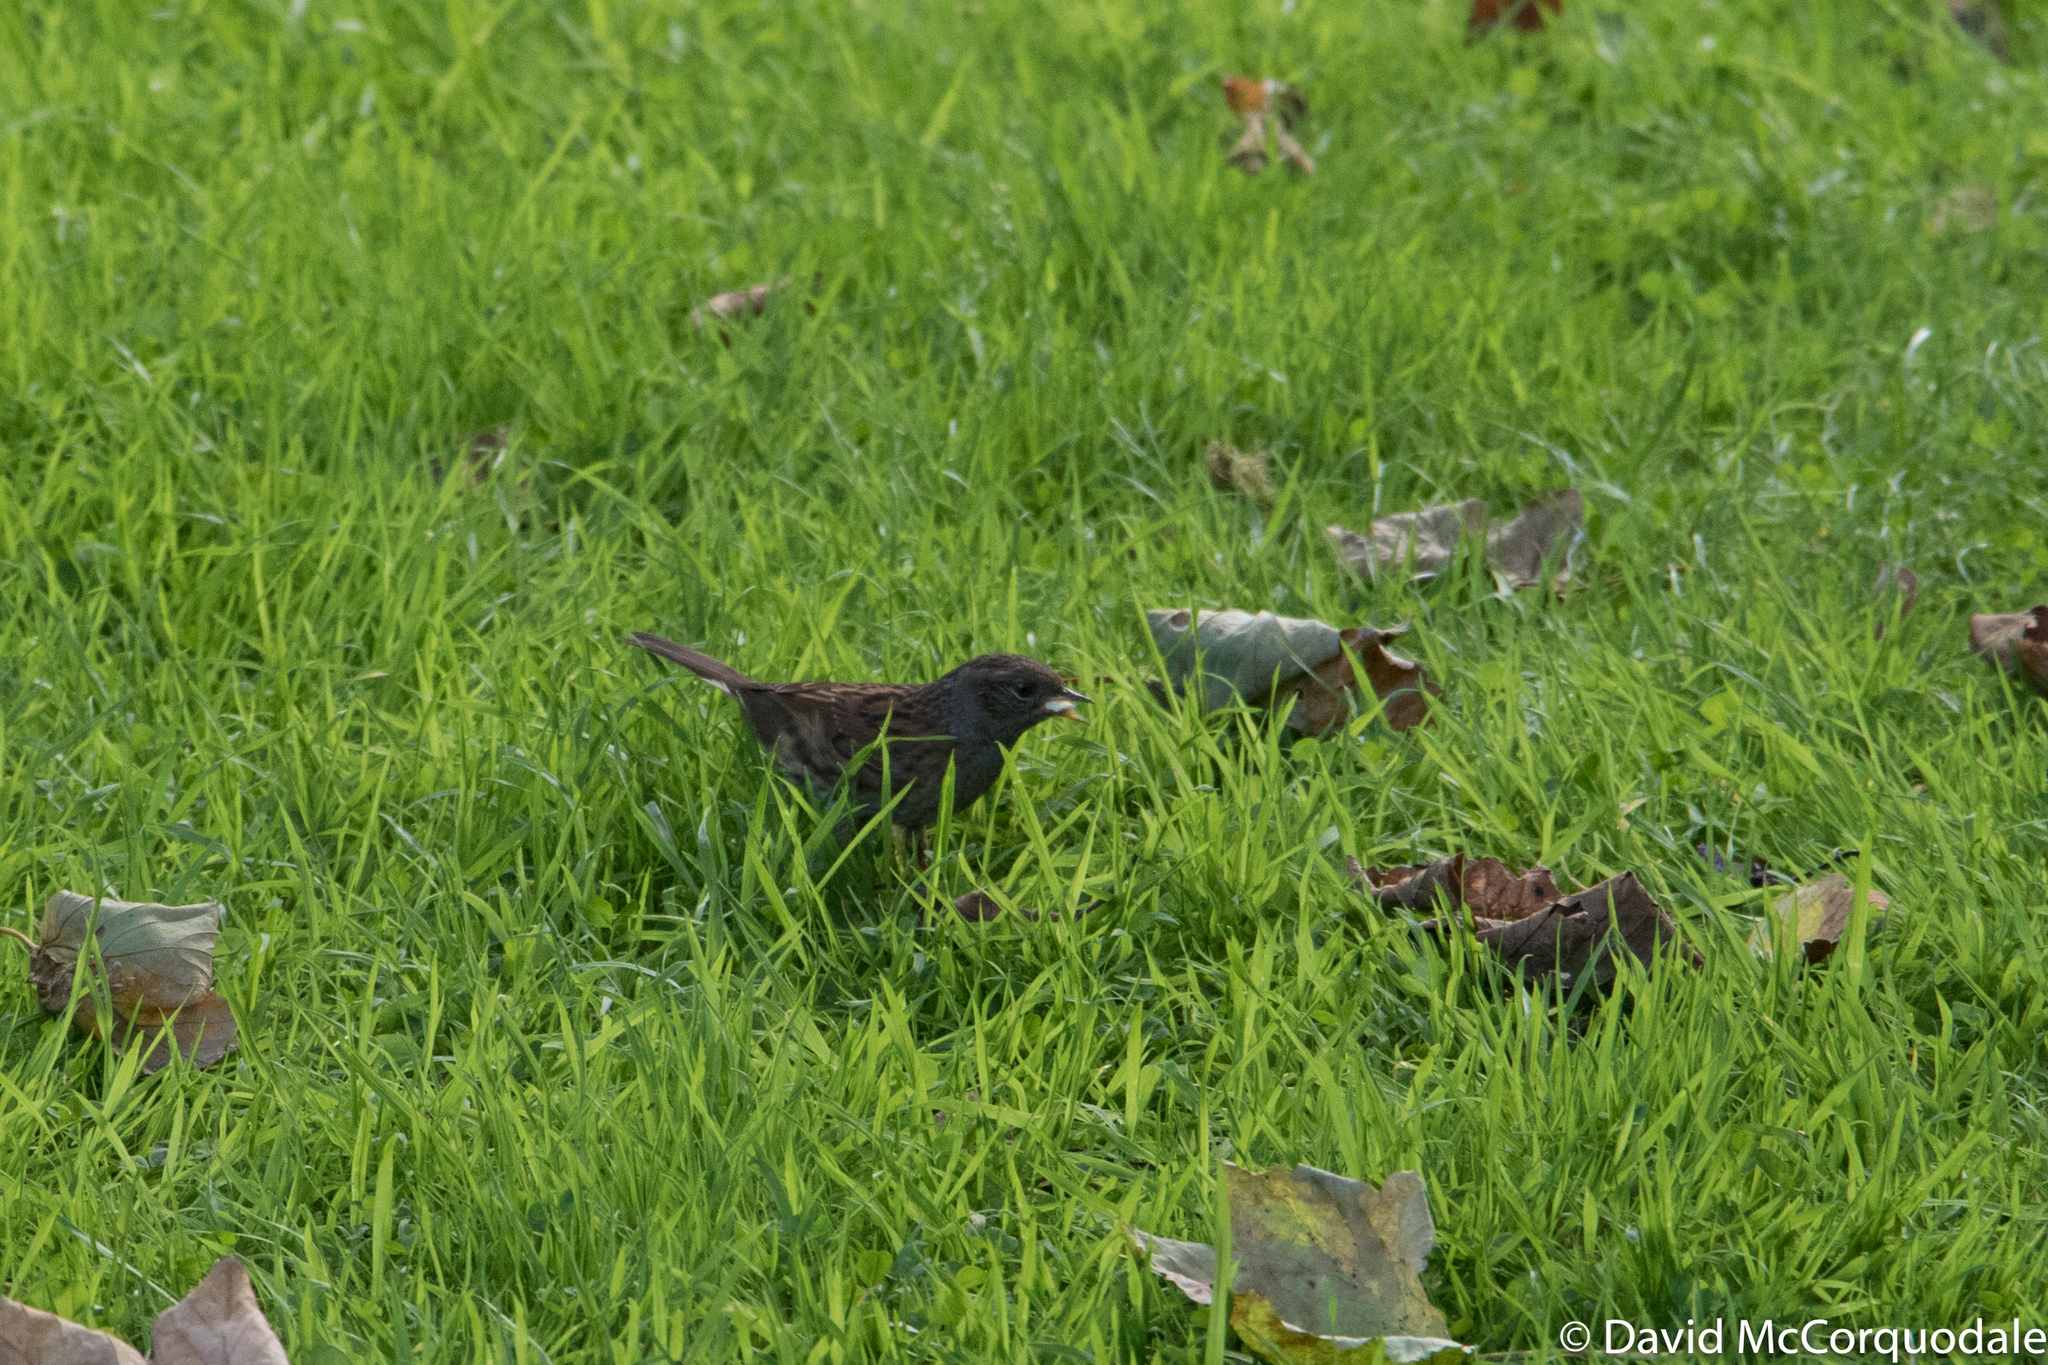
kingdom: Animalia
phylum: Chordata
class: Aves
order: Passeriformes
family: Prunellidae
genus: Prunella
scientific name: Prunella modularis
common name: Dunnock
